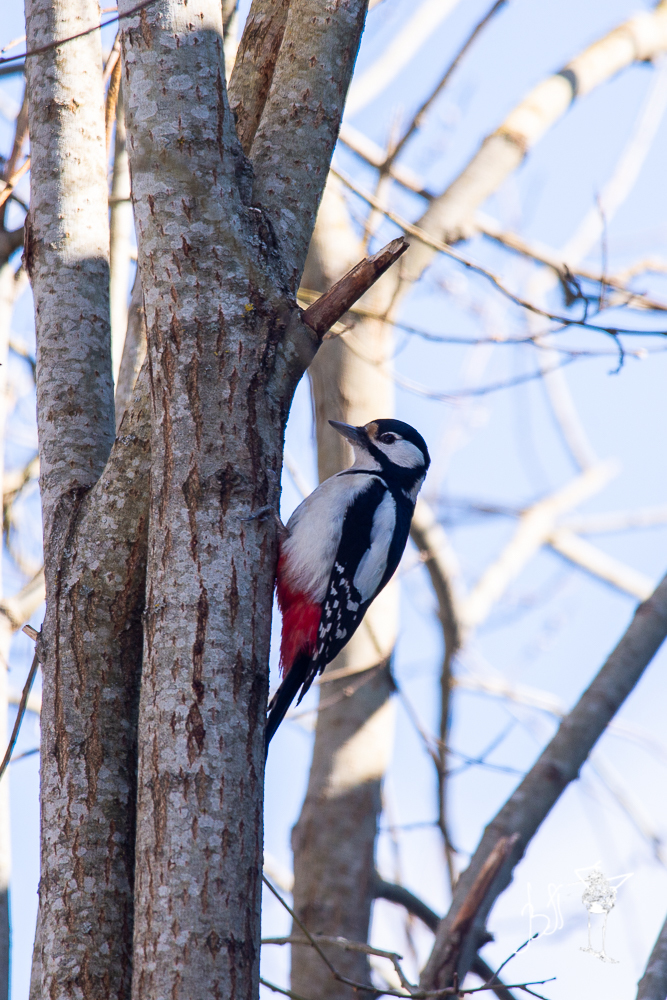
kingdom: Animalia
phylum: Chordata
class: Aves
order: Piciformes
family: Picidae
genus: Dendrocopos
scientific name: Dendrocopos major
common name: Great spotted woodpecker
